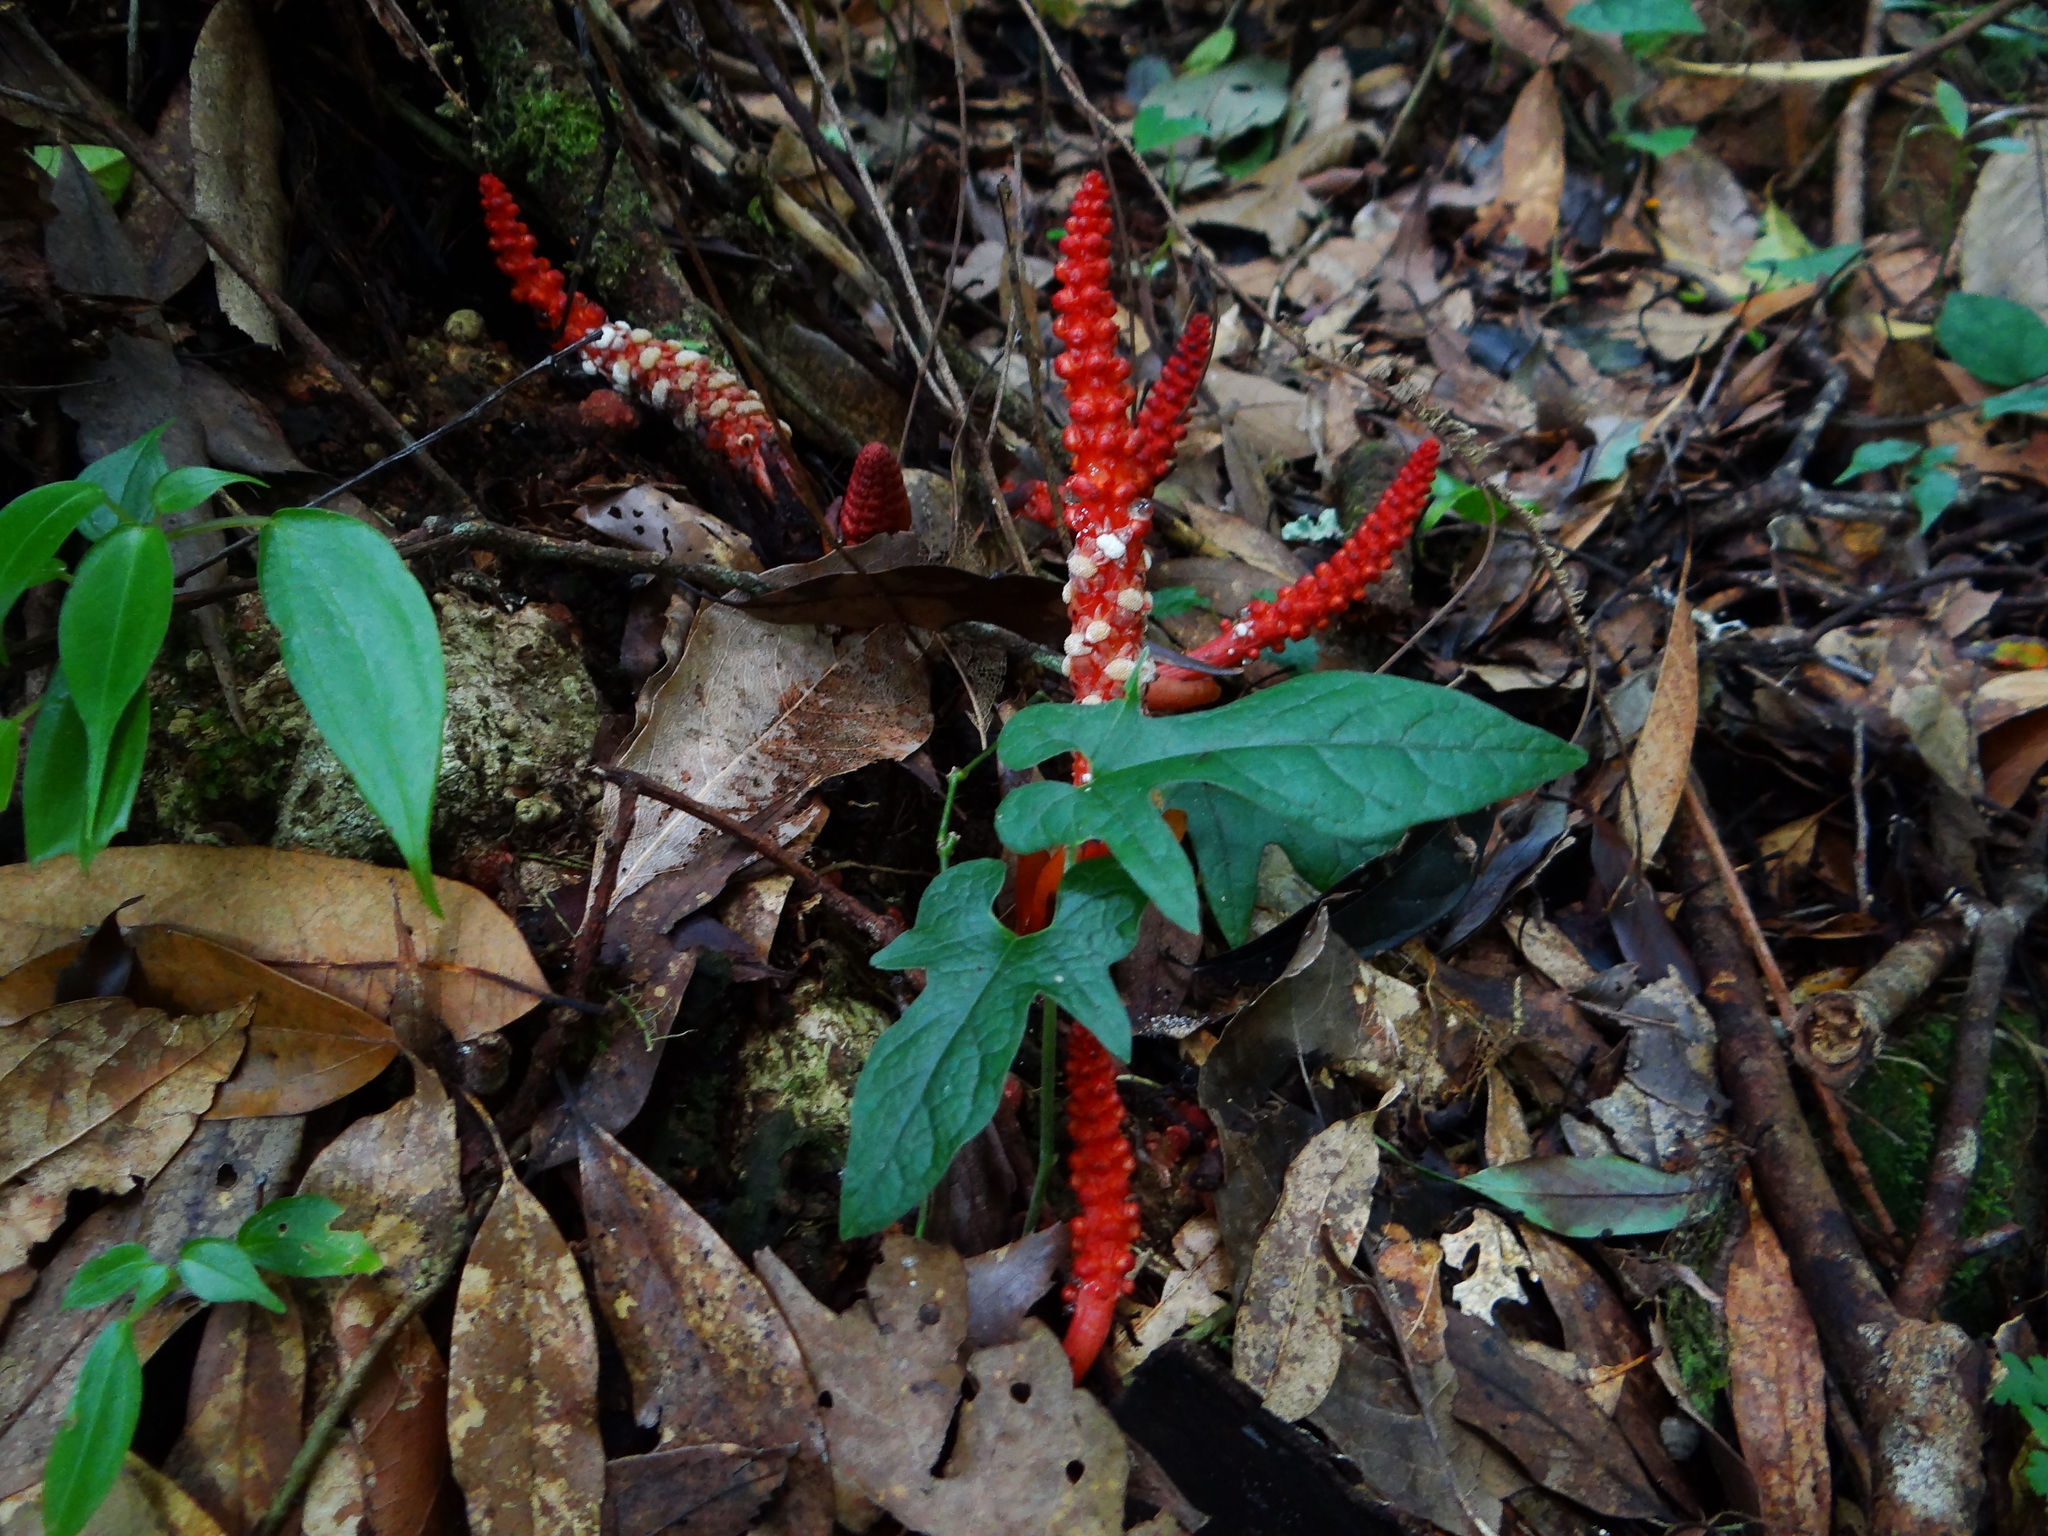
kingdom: Plantae
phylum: Tracheophyta
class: Magnoliopsida
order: Santalales
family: Balanophoraceae
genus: Balanophora
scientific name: Balanophora laxiflora
